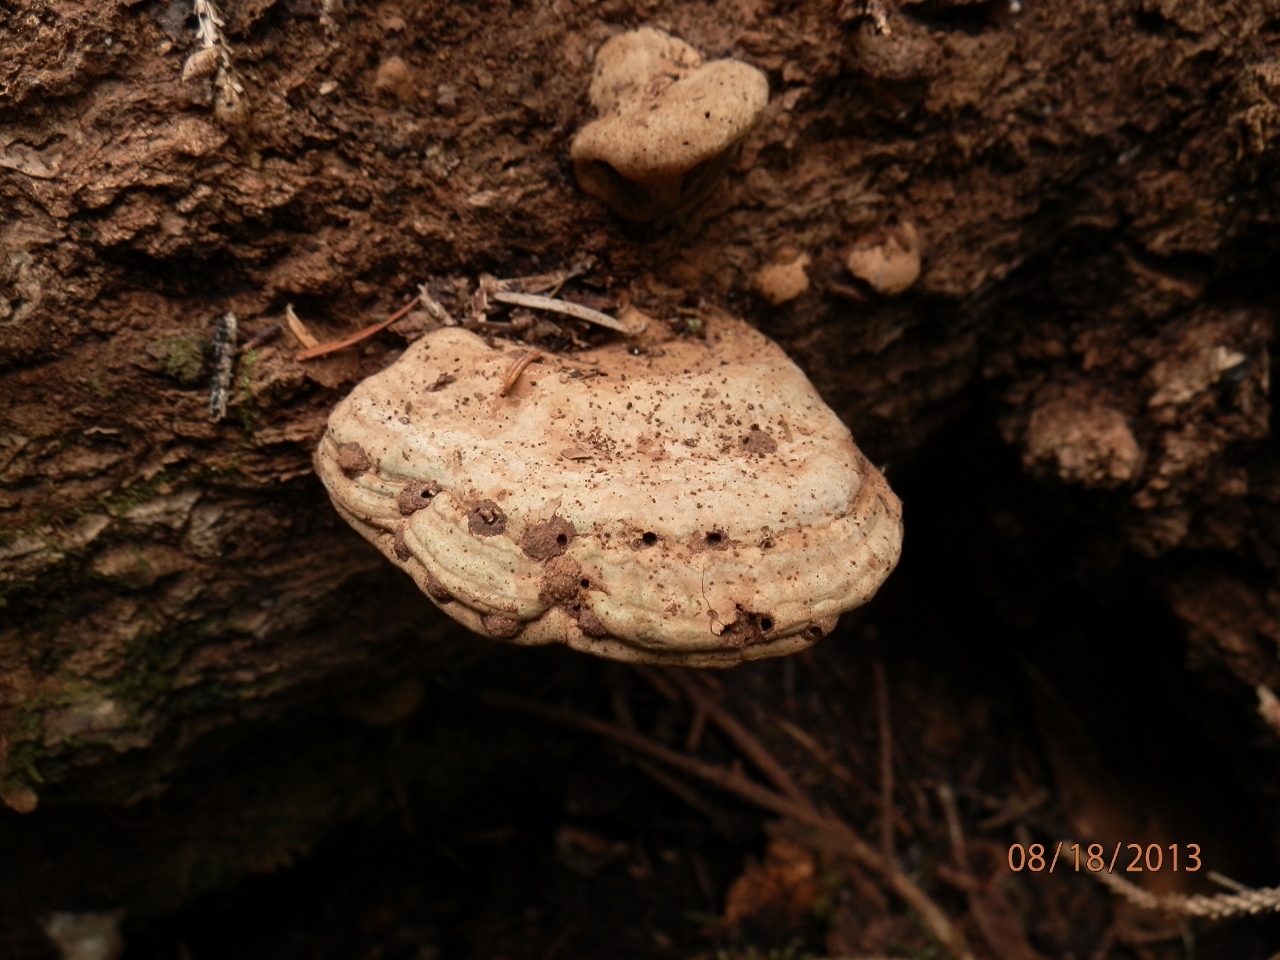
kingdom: Fungi
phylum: Basidiomycota
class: Agaricomycetes
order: Polyporales
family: Polyporaceae
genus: Ganoderma
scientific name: Ganoderma applanatum
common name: Artist's bracket
